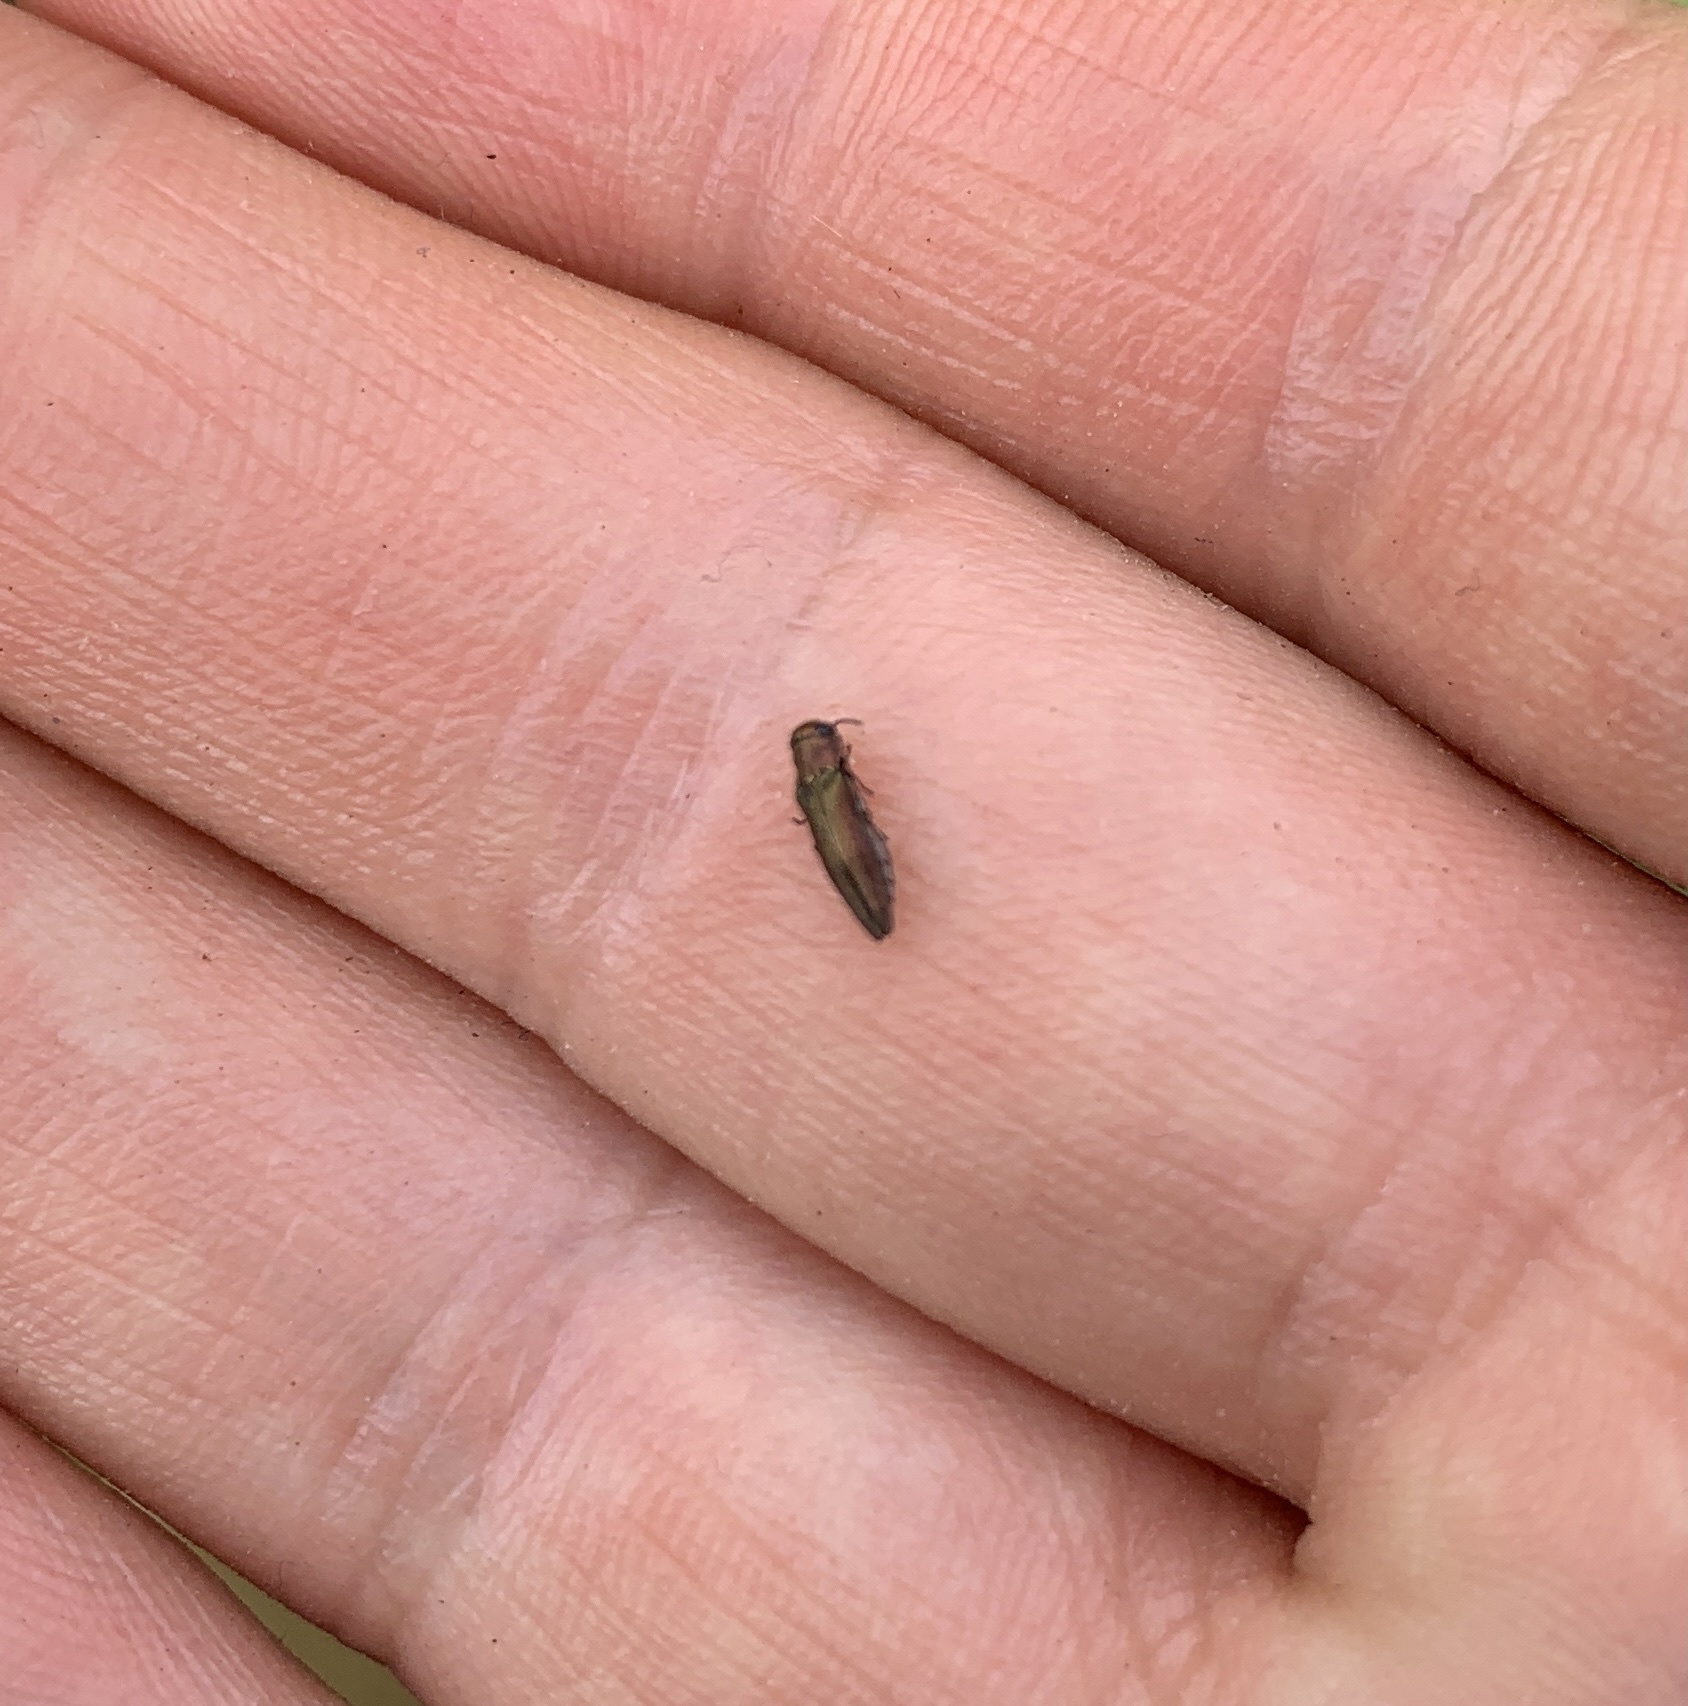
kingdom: Animalia
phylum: Arthropoda
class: Insecta
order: Coleoptera
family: Buprestidae
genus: Agrilus
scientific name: Agrilus cuprescens
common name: Rose stem girdler
